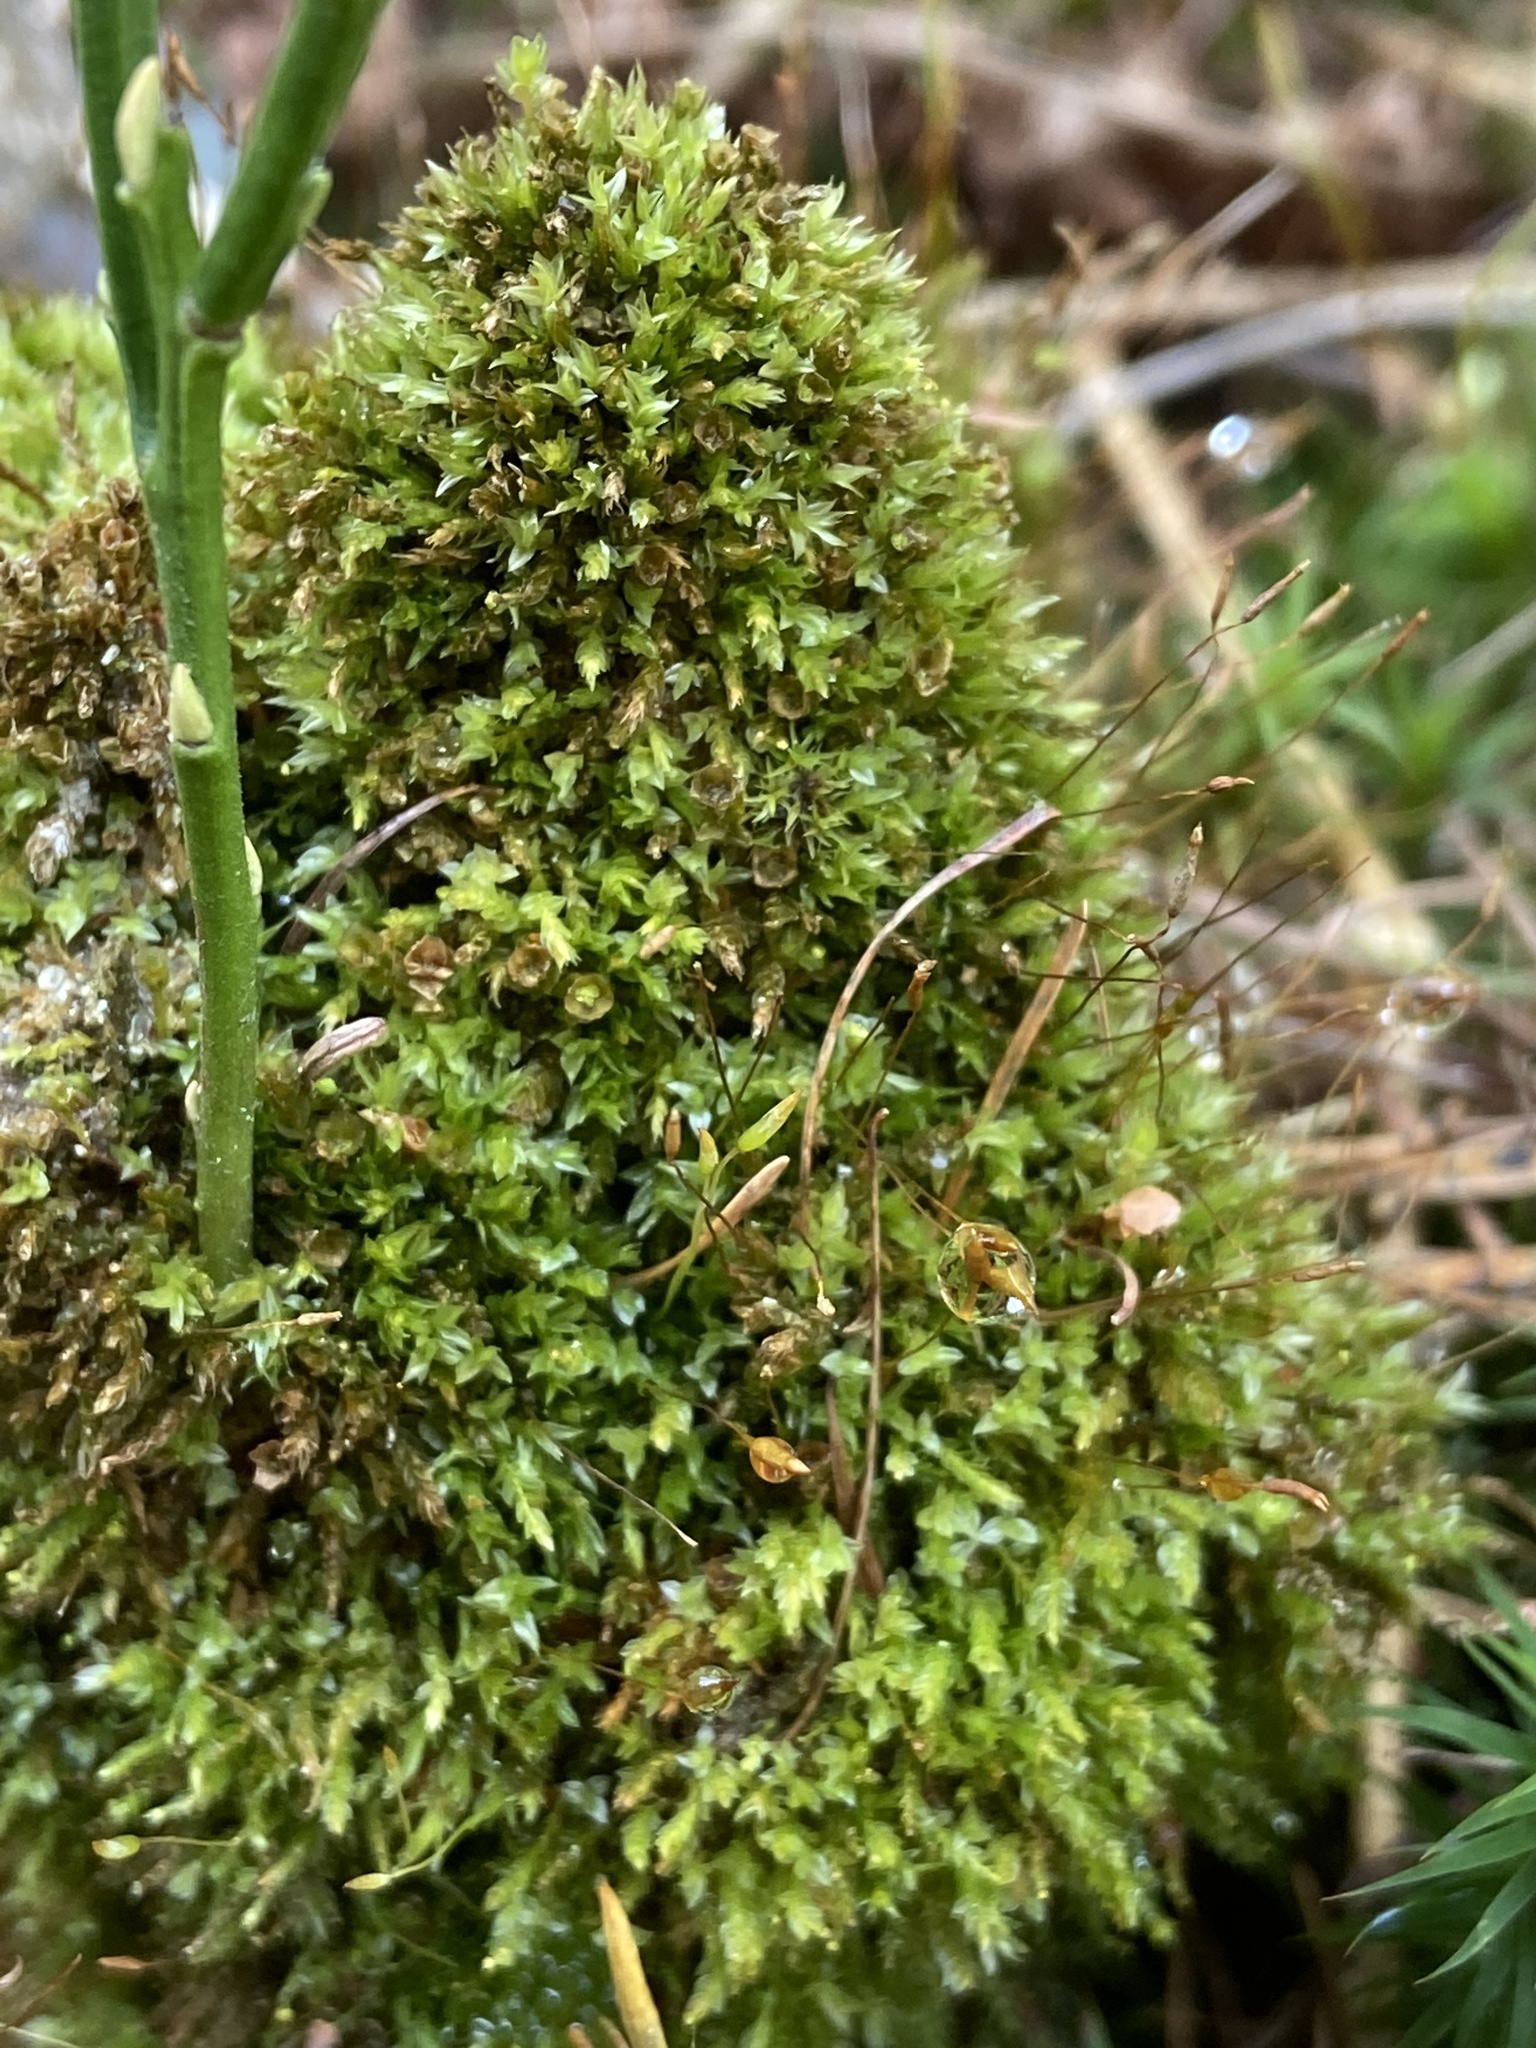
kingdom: Plantae
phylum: Bryophyta
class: Polytrichopsida
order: Tetraphidales
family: Tetraphidaceae
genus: Tetraphis
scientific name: Tetraphis pellucida
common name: Common four-toothed moss
